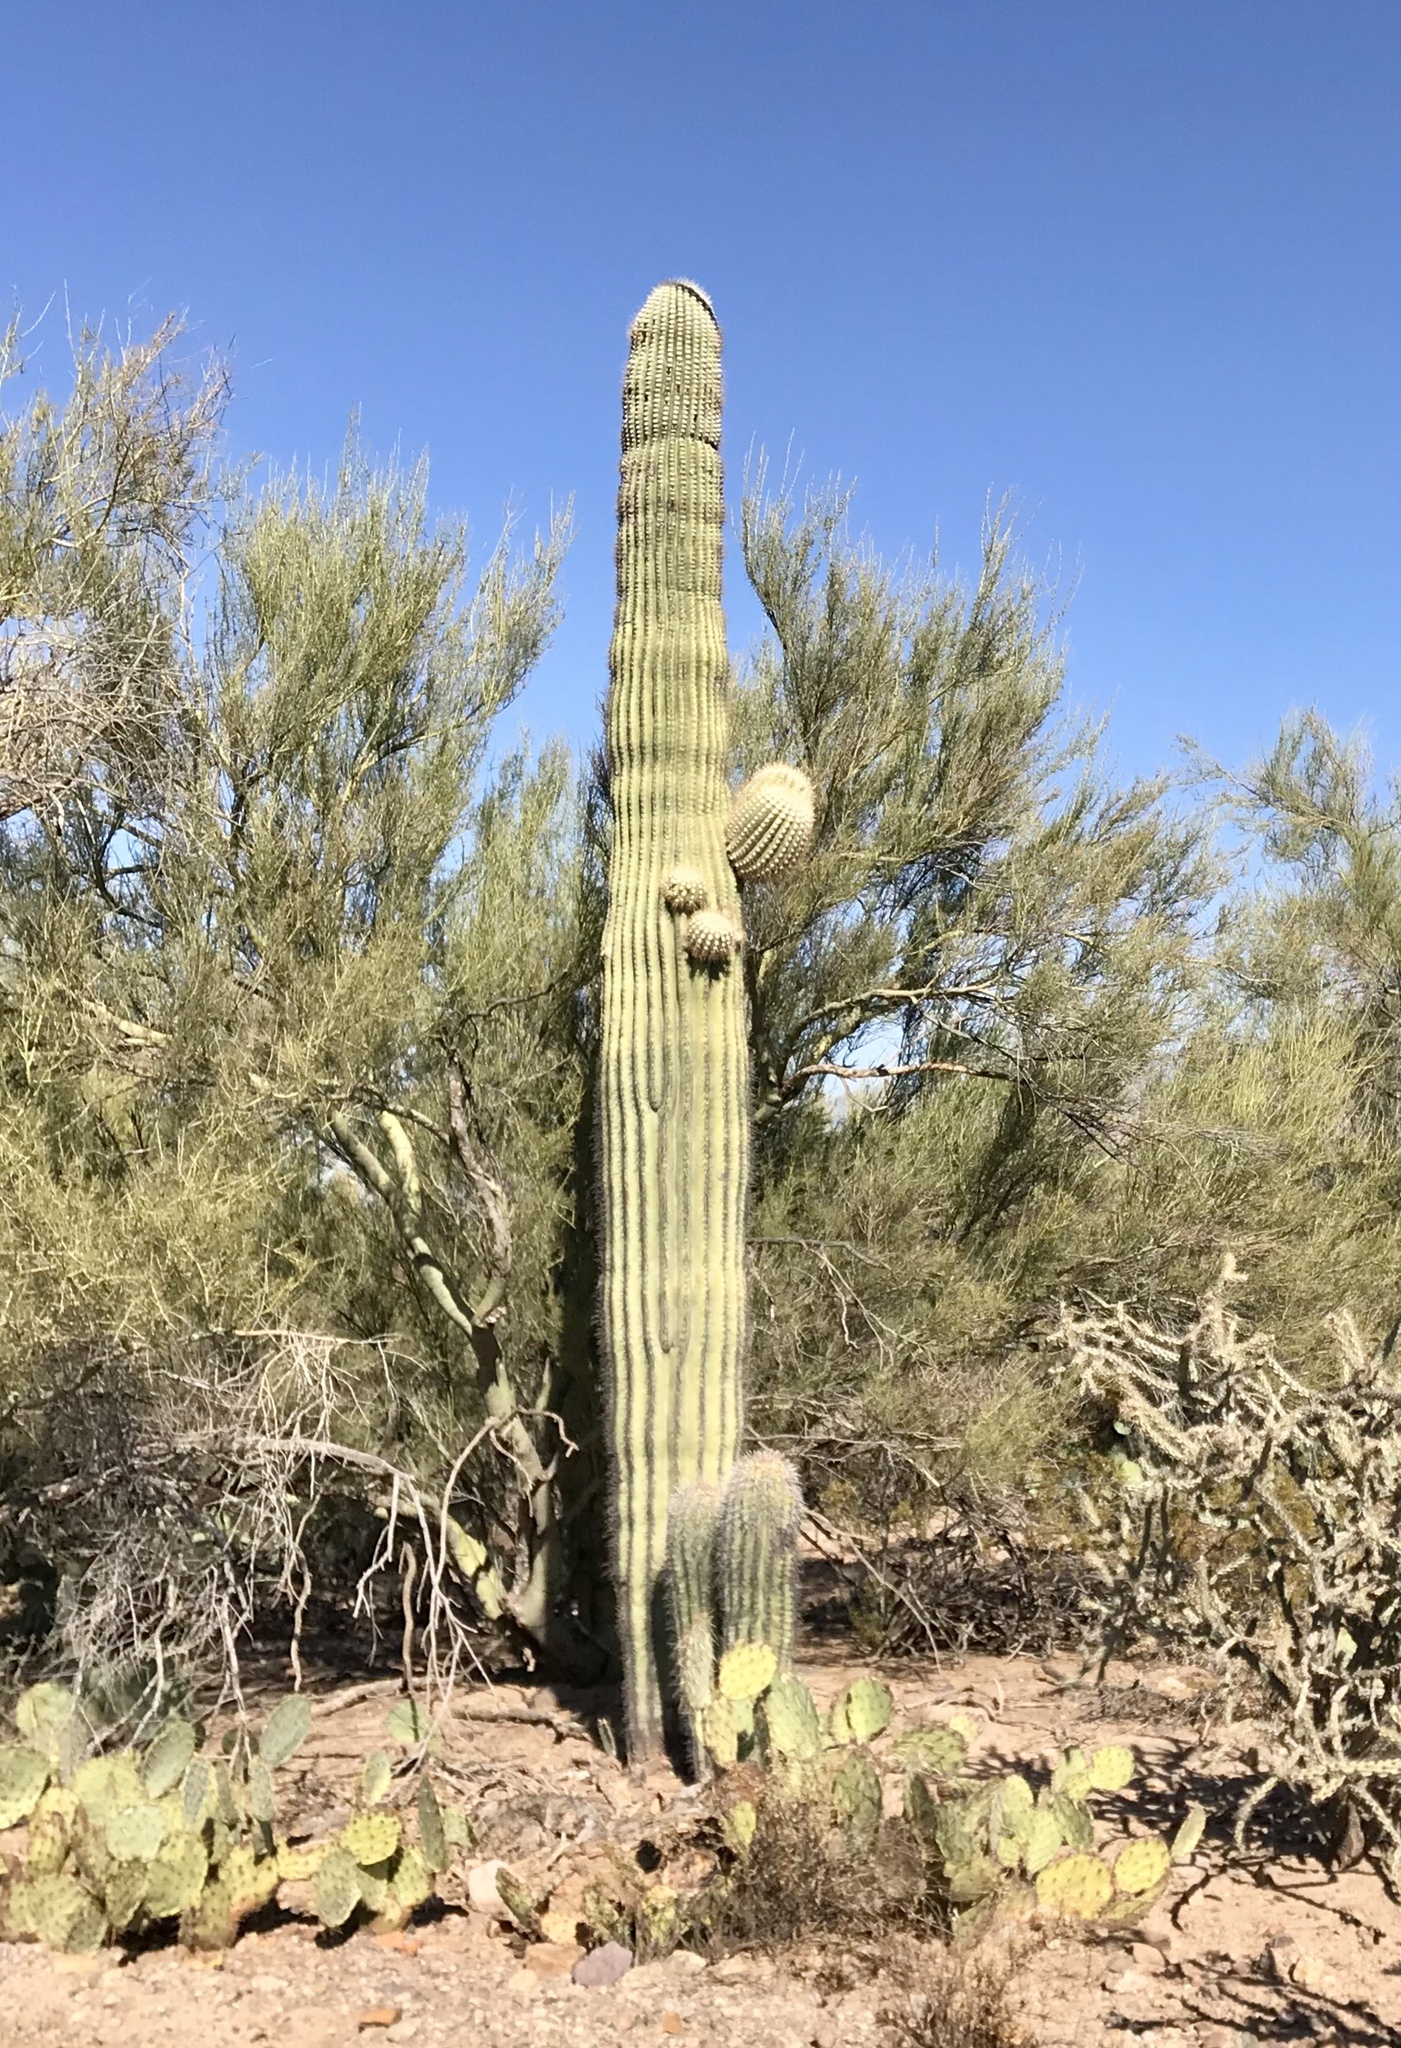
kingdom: Plantae
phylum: Tracheophyta
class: Magnoliopsida
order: Caryophyllales
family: Cactaceae
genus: Carnegiea
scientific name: Carnegiea gigantea
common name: Saguaro
